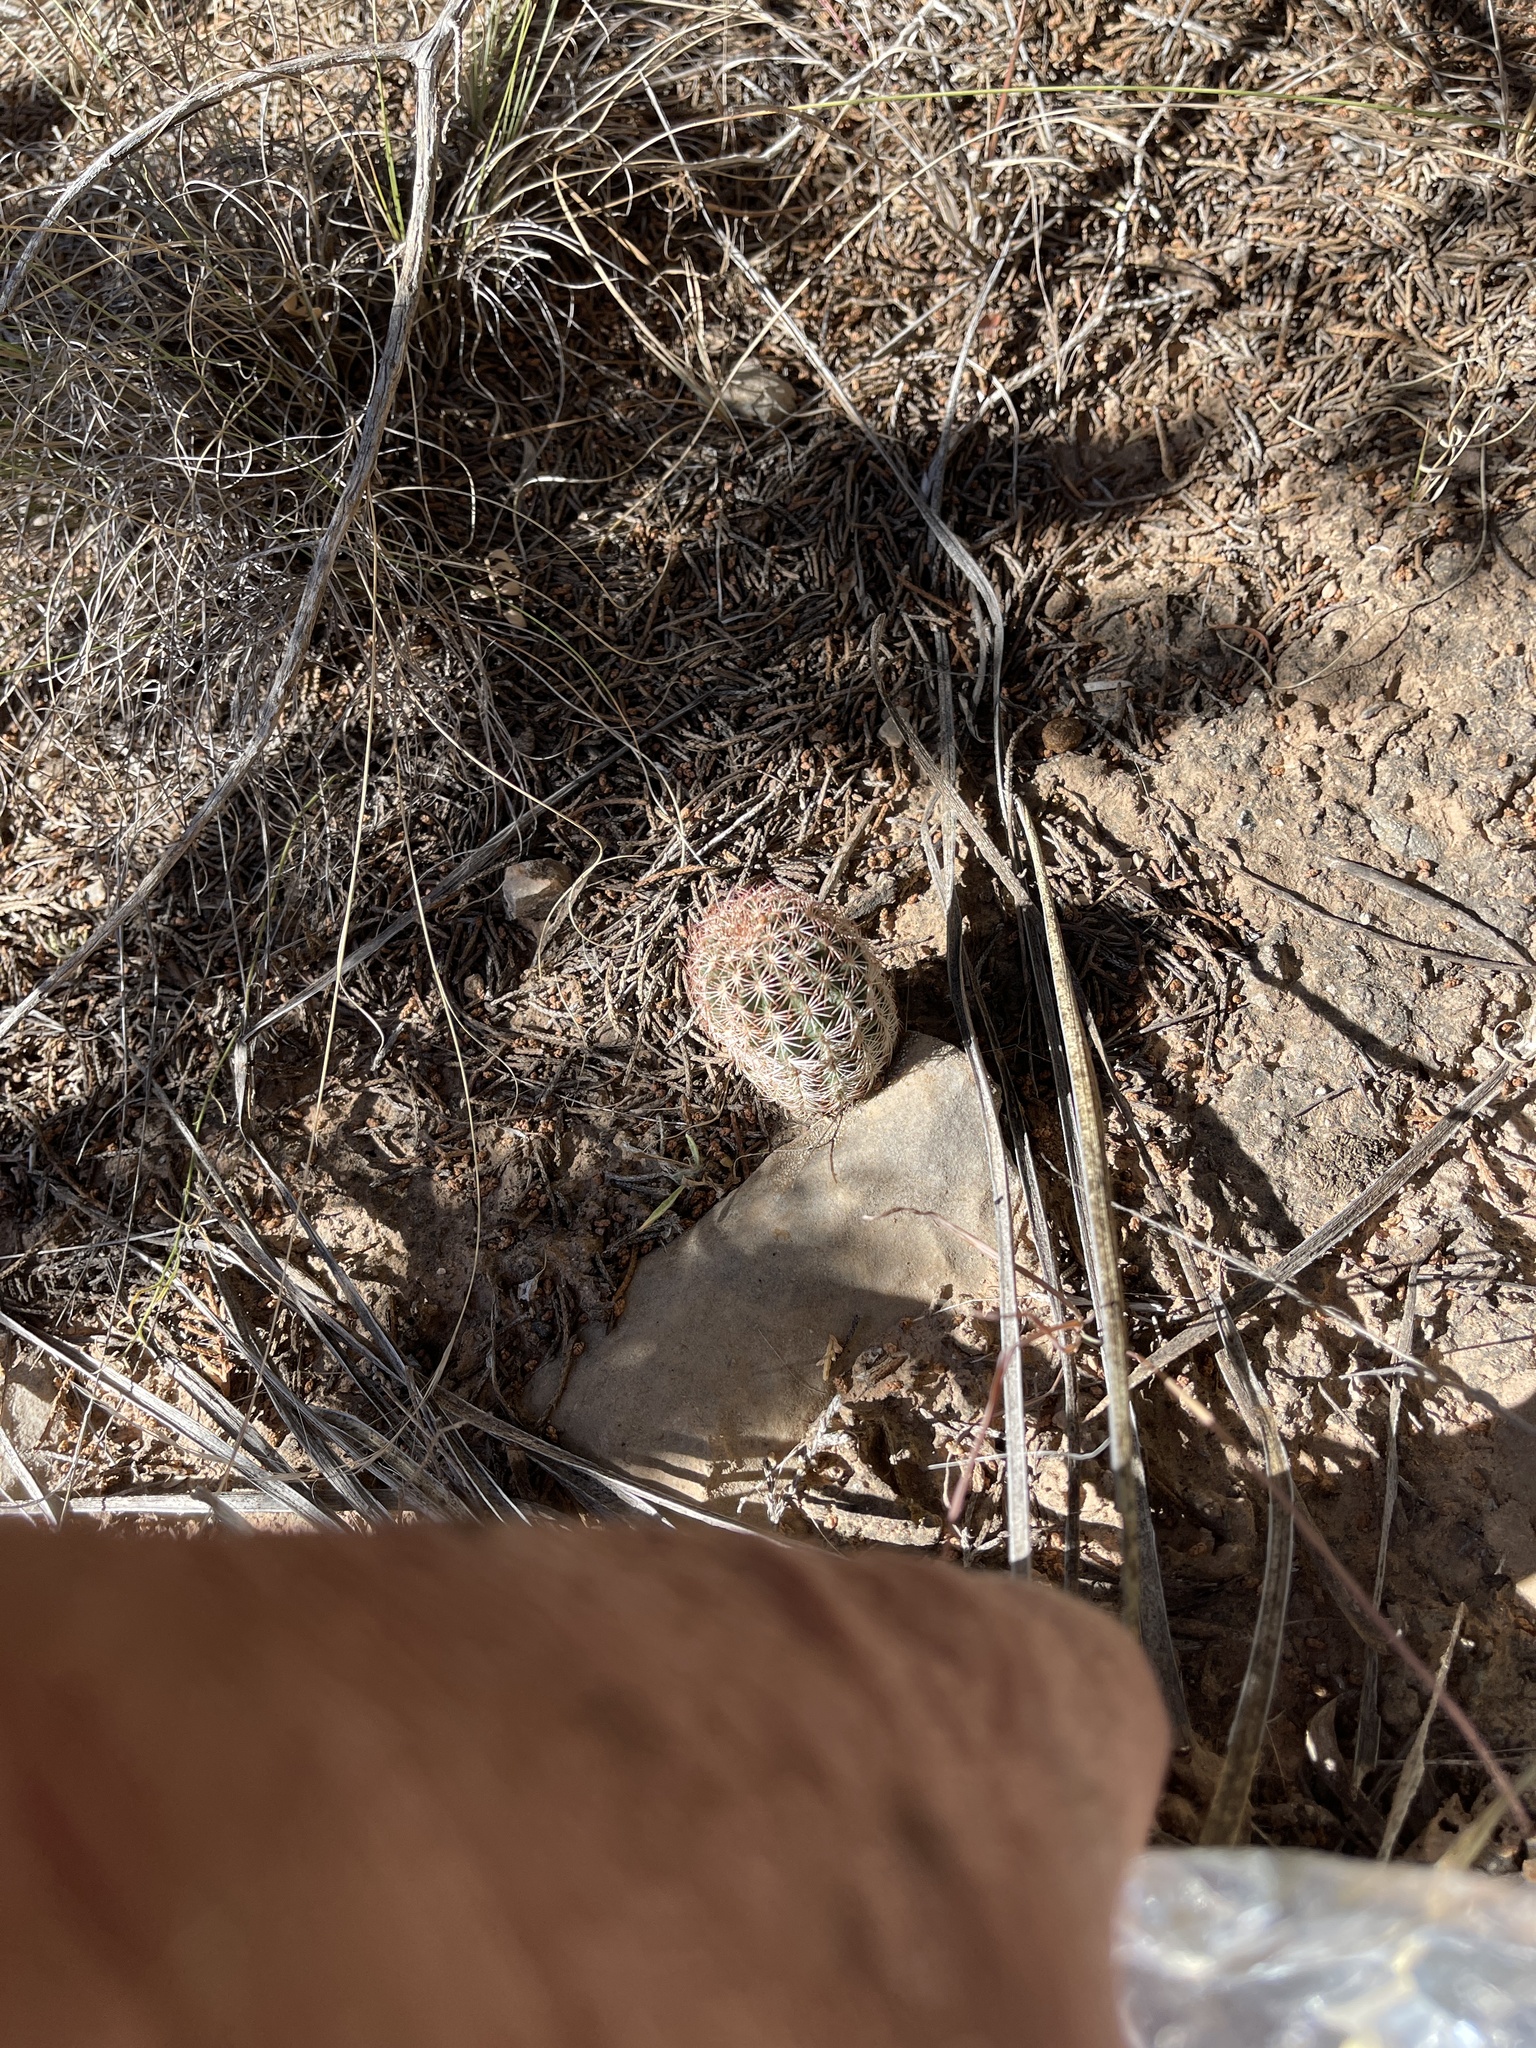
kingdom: Plantae
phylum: Tracheophyta
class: Magnoliopsida
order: Caryophyllales
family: Cactaceae
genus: Echinocereus
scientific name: Echinocereus reichenbachii
